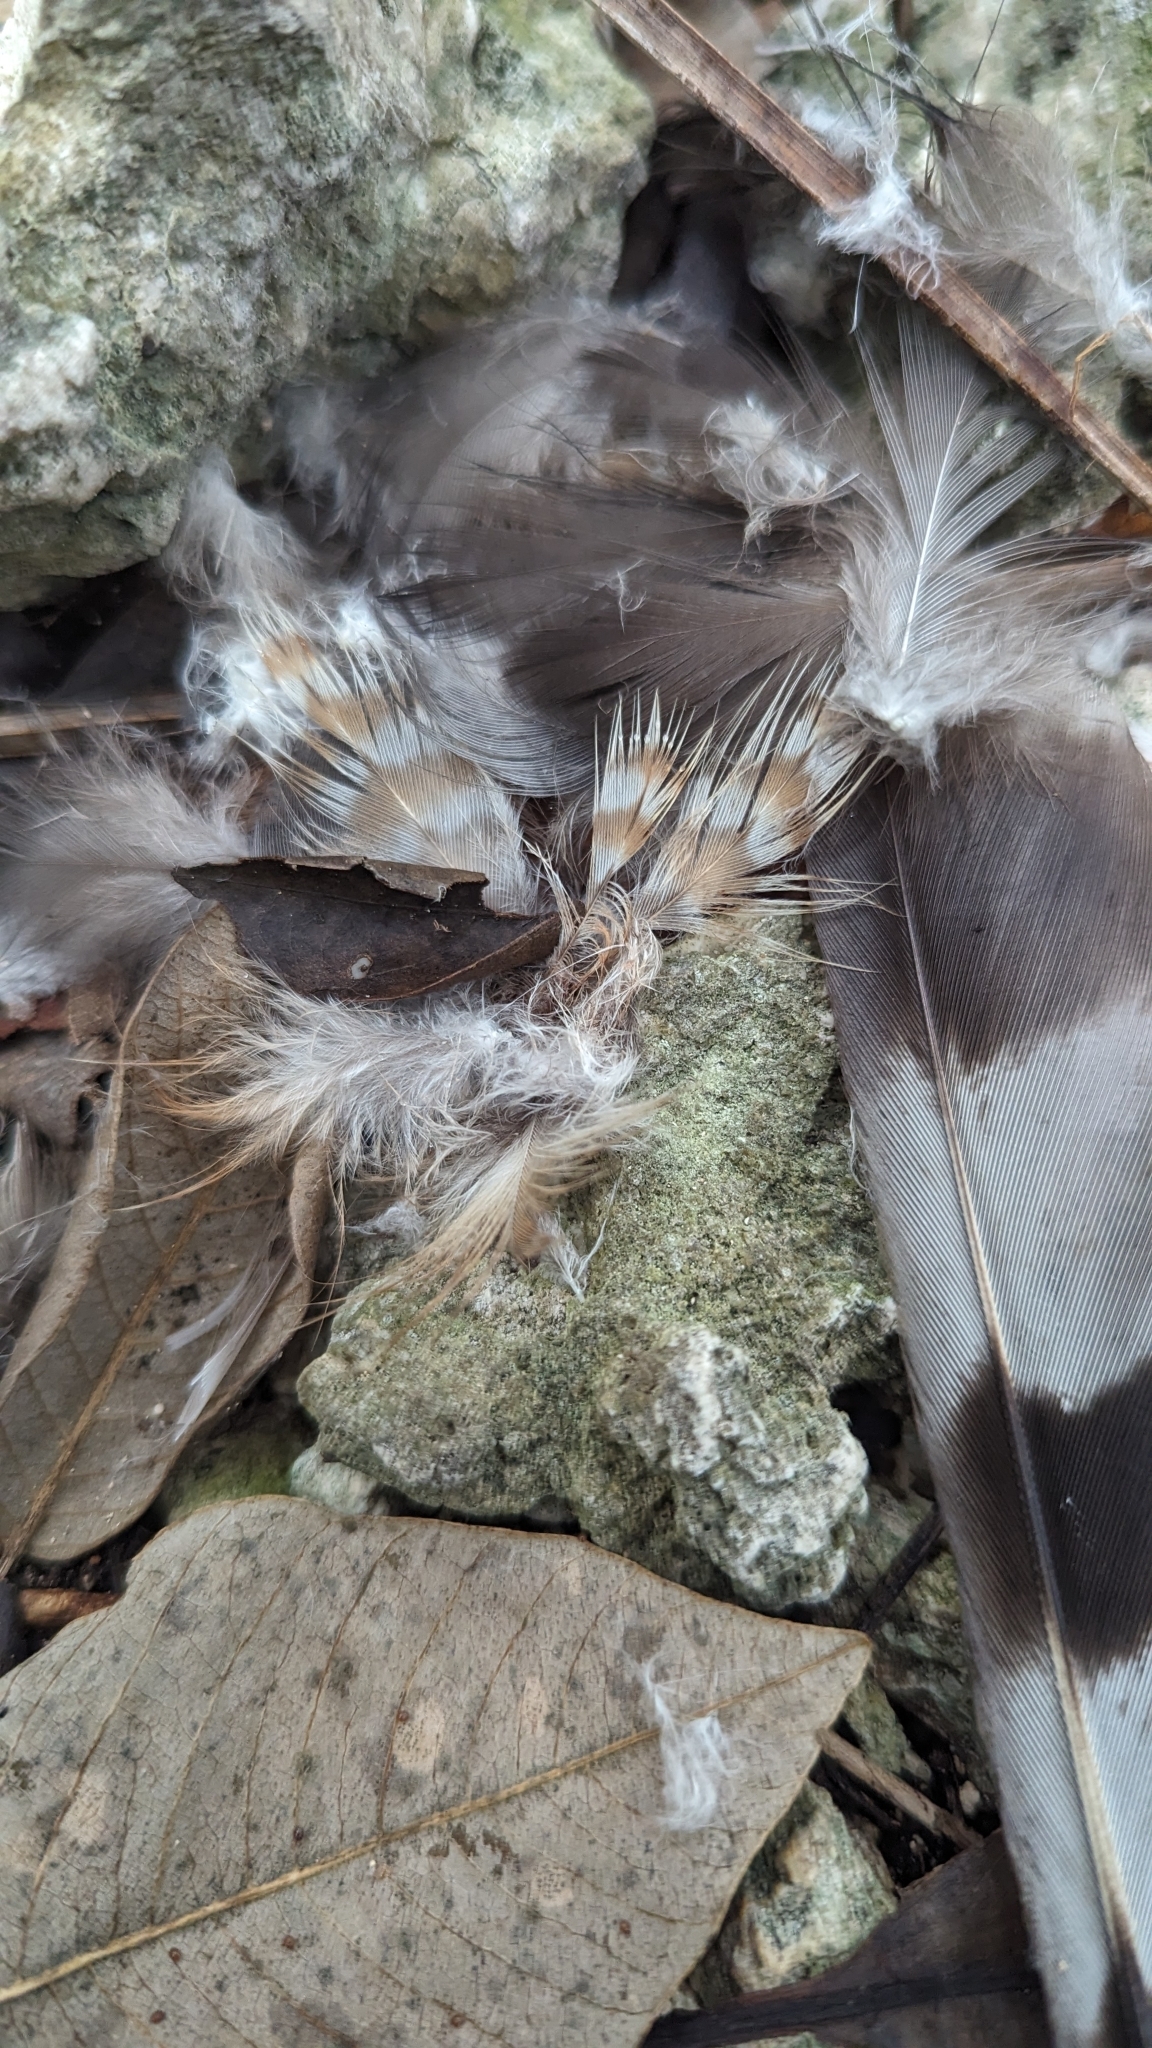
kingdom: Animalia
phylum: Chordata
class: Aves
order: Accipitriformes
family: Accipitridae
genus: Accipiter
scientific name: Accipiter striatus
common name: Sharp-shinned hawk
